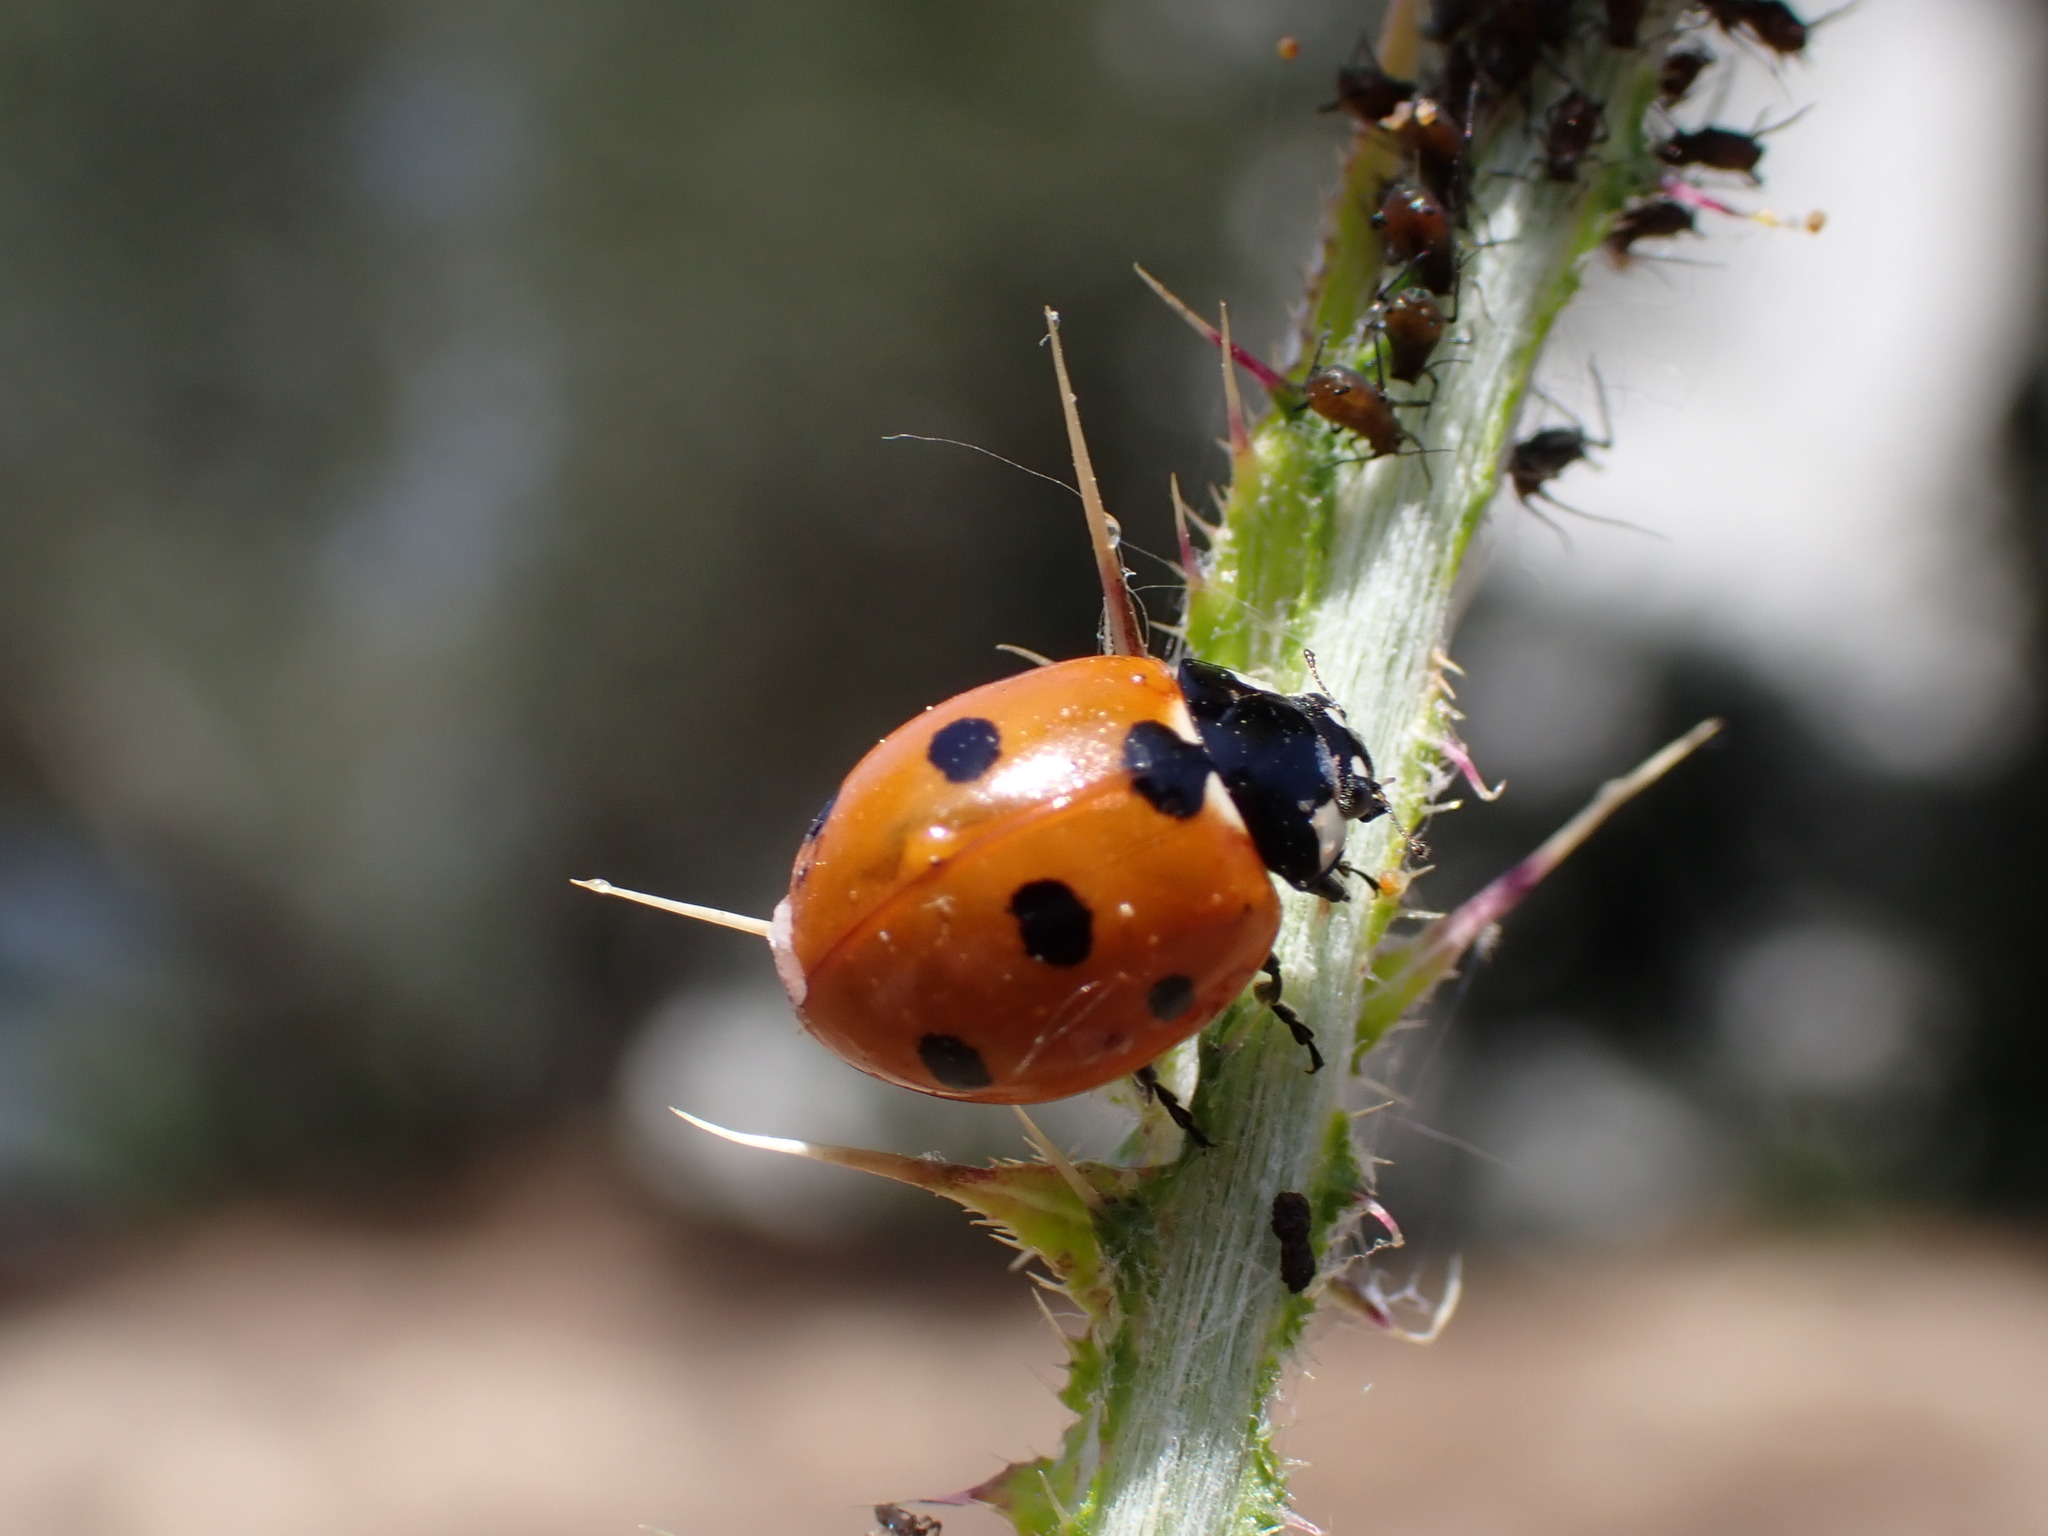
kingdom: Animalia
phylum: Arthropoda
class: Insecta
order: Coleoptera
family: Coccinellidae
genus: Coccinella
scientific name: Coccinella septempunctata
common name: Sevenspotted lady beetle
